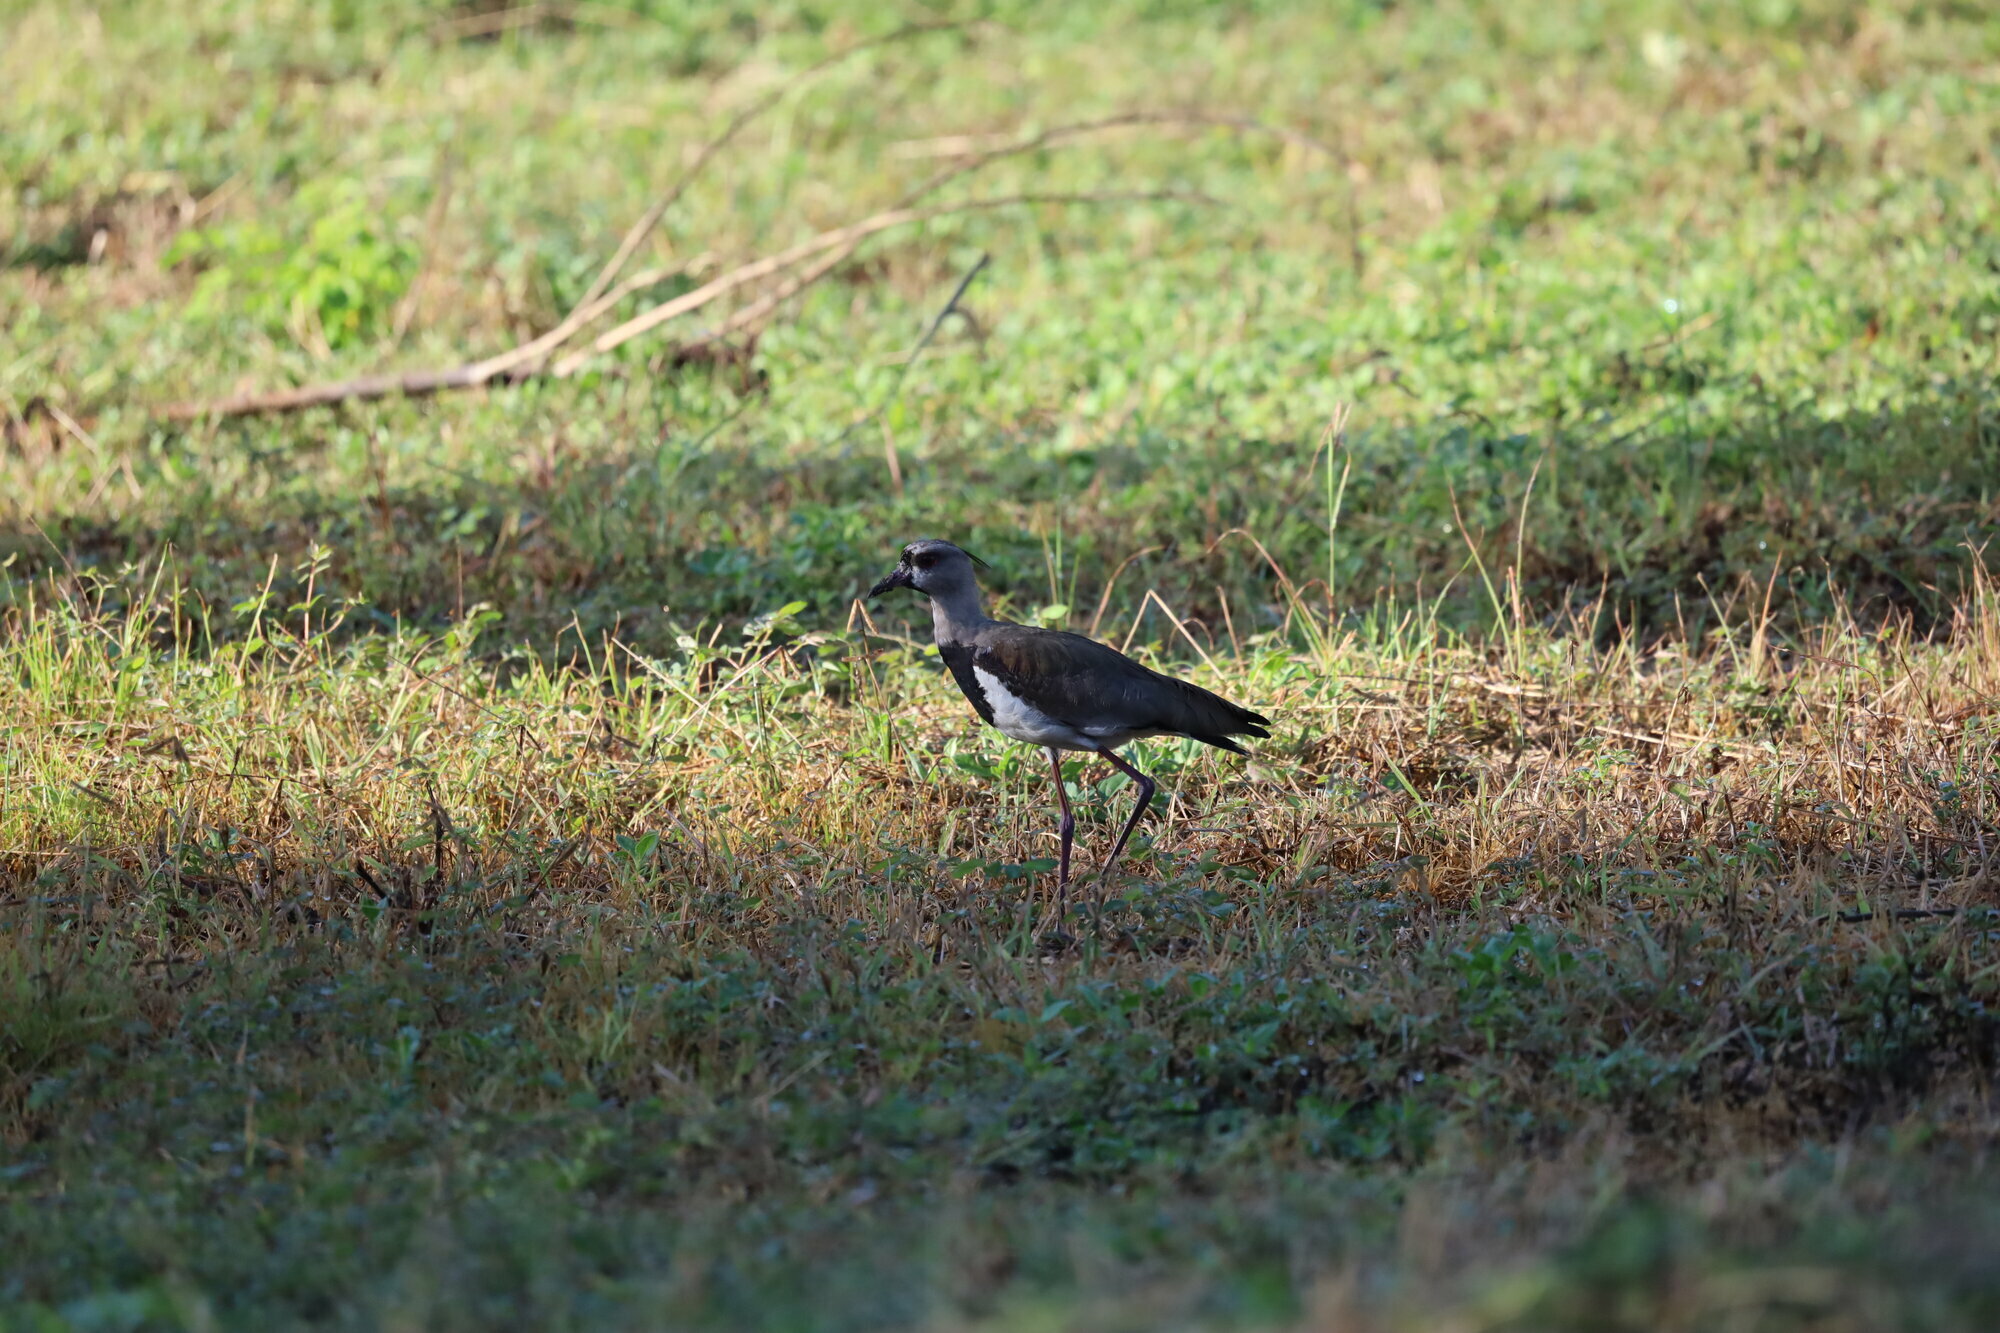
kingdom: Animalia
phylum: Chordata
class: Aves
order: Charadriiformes
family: Charadriidae
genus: Vanellus
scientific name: Vanellus chilensis
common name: Southern lapwing
